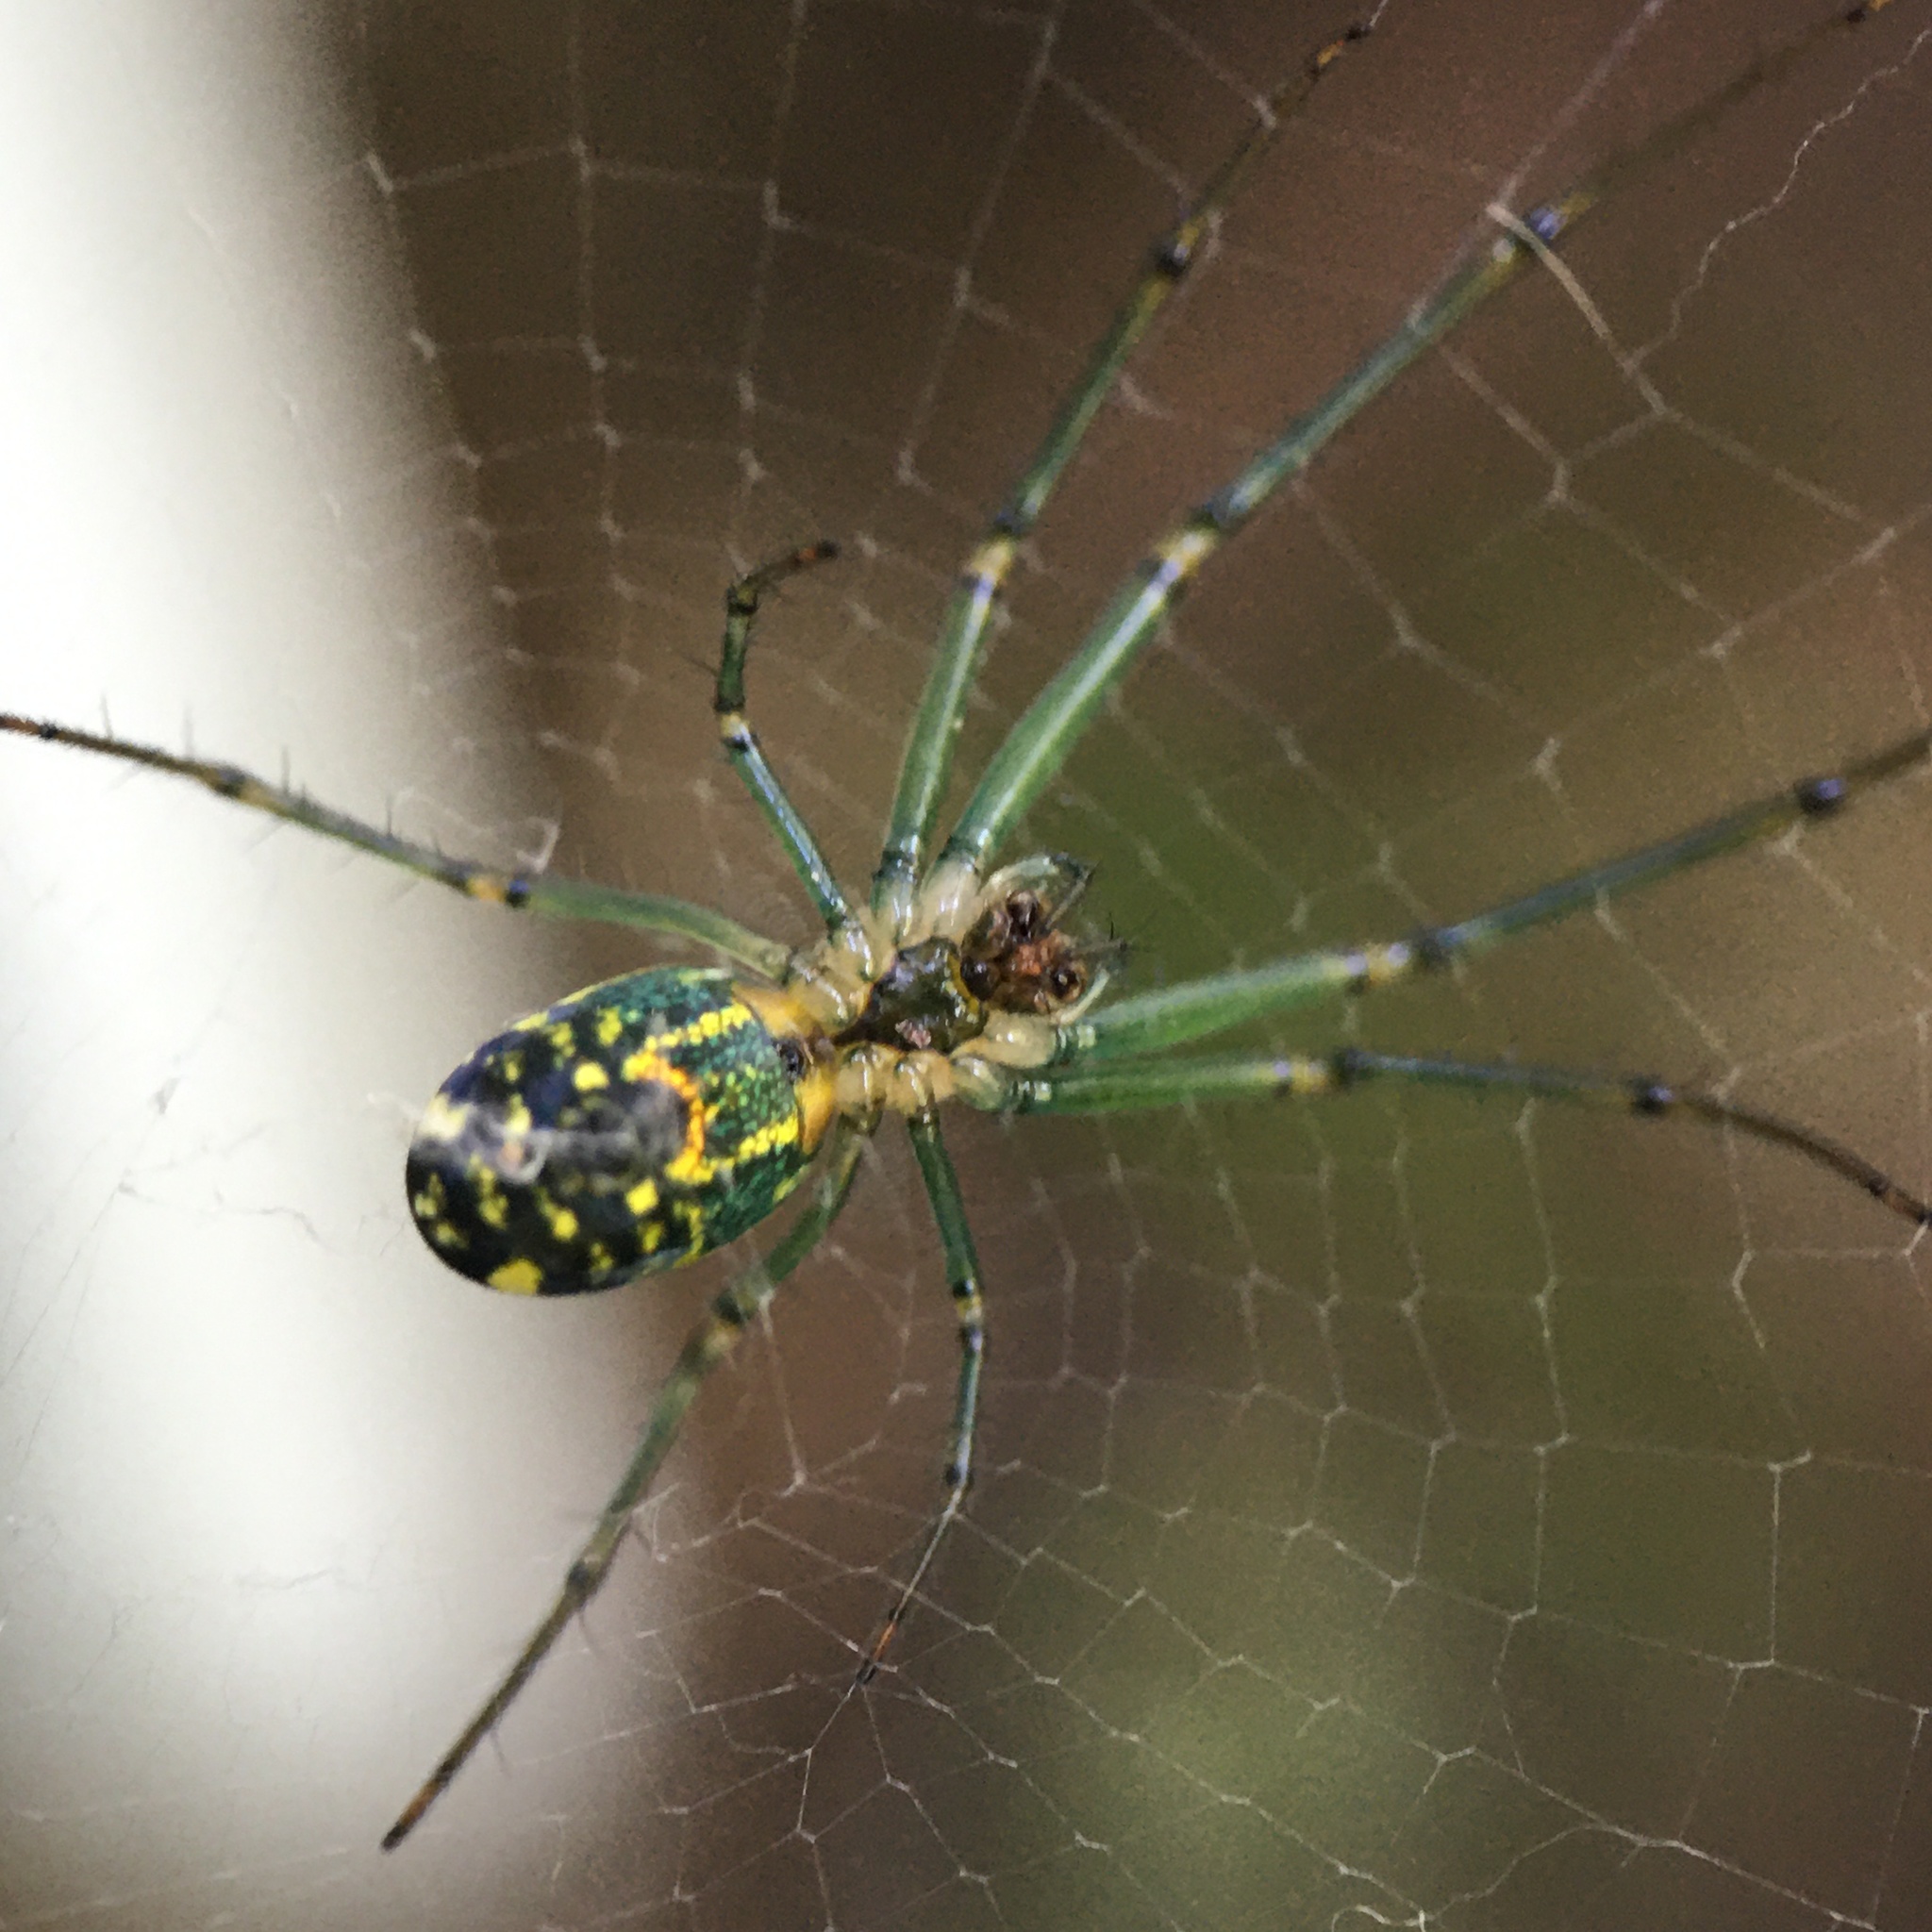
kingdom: Animalia
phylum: Arthropoda
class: Arachnida
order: Araneae
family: Tetragnathidae
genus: Leucauge
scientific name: Leucauge venusta
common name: Longjawed orb weavers
